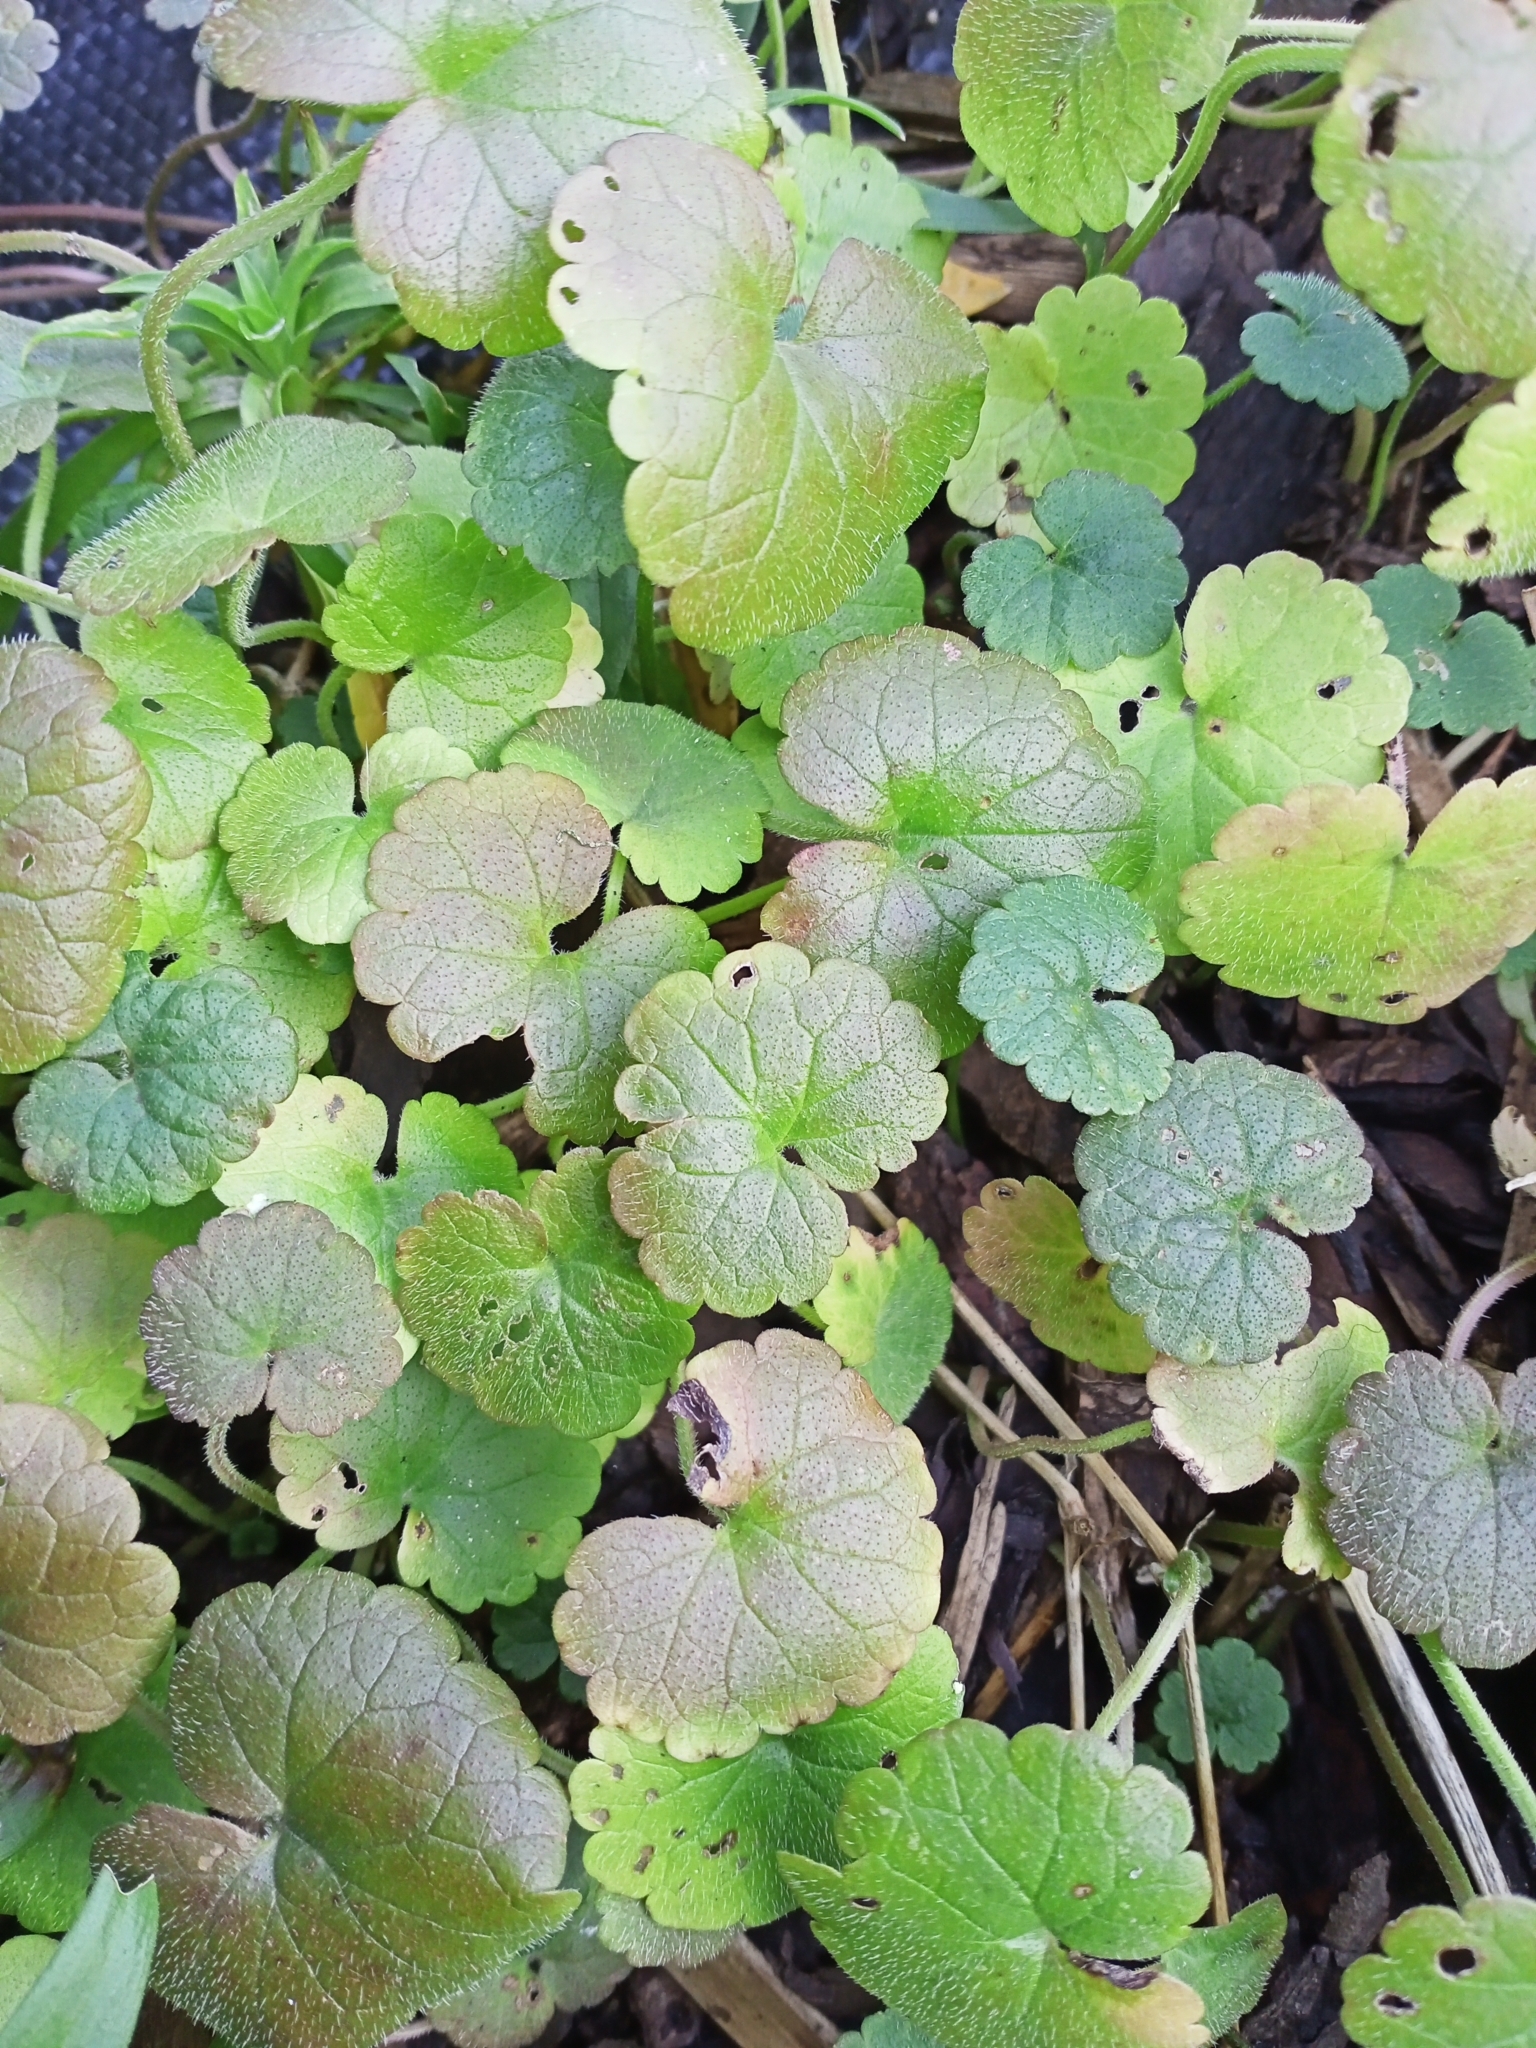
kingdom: Plantae
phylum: Tracheophyta
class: Magnoliopsida
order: Lamiales
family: Lamiaceae
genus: Glechoma
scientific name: Glechoma hederacea
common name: Ground ivy
